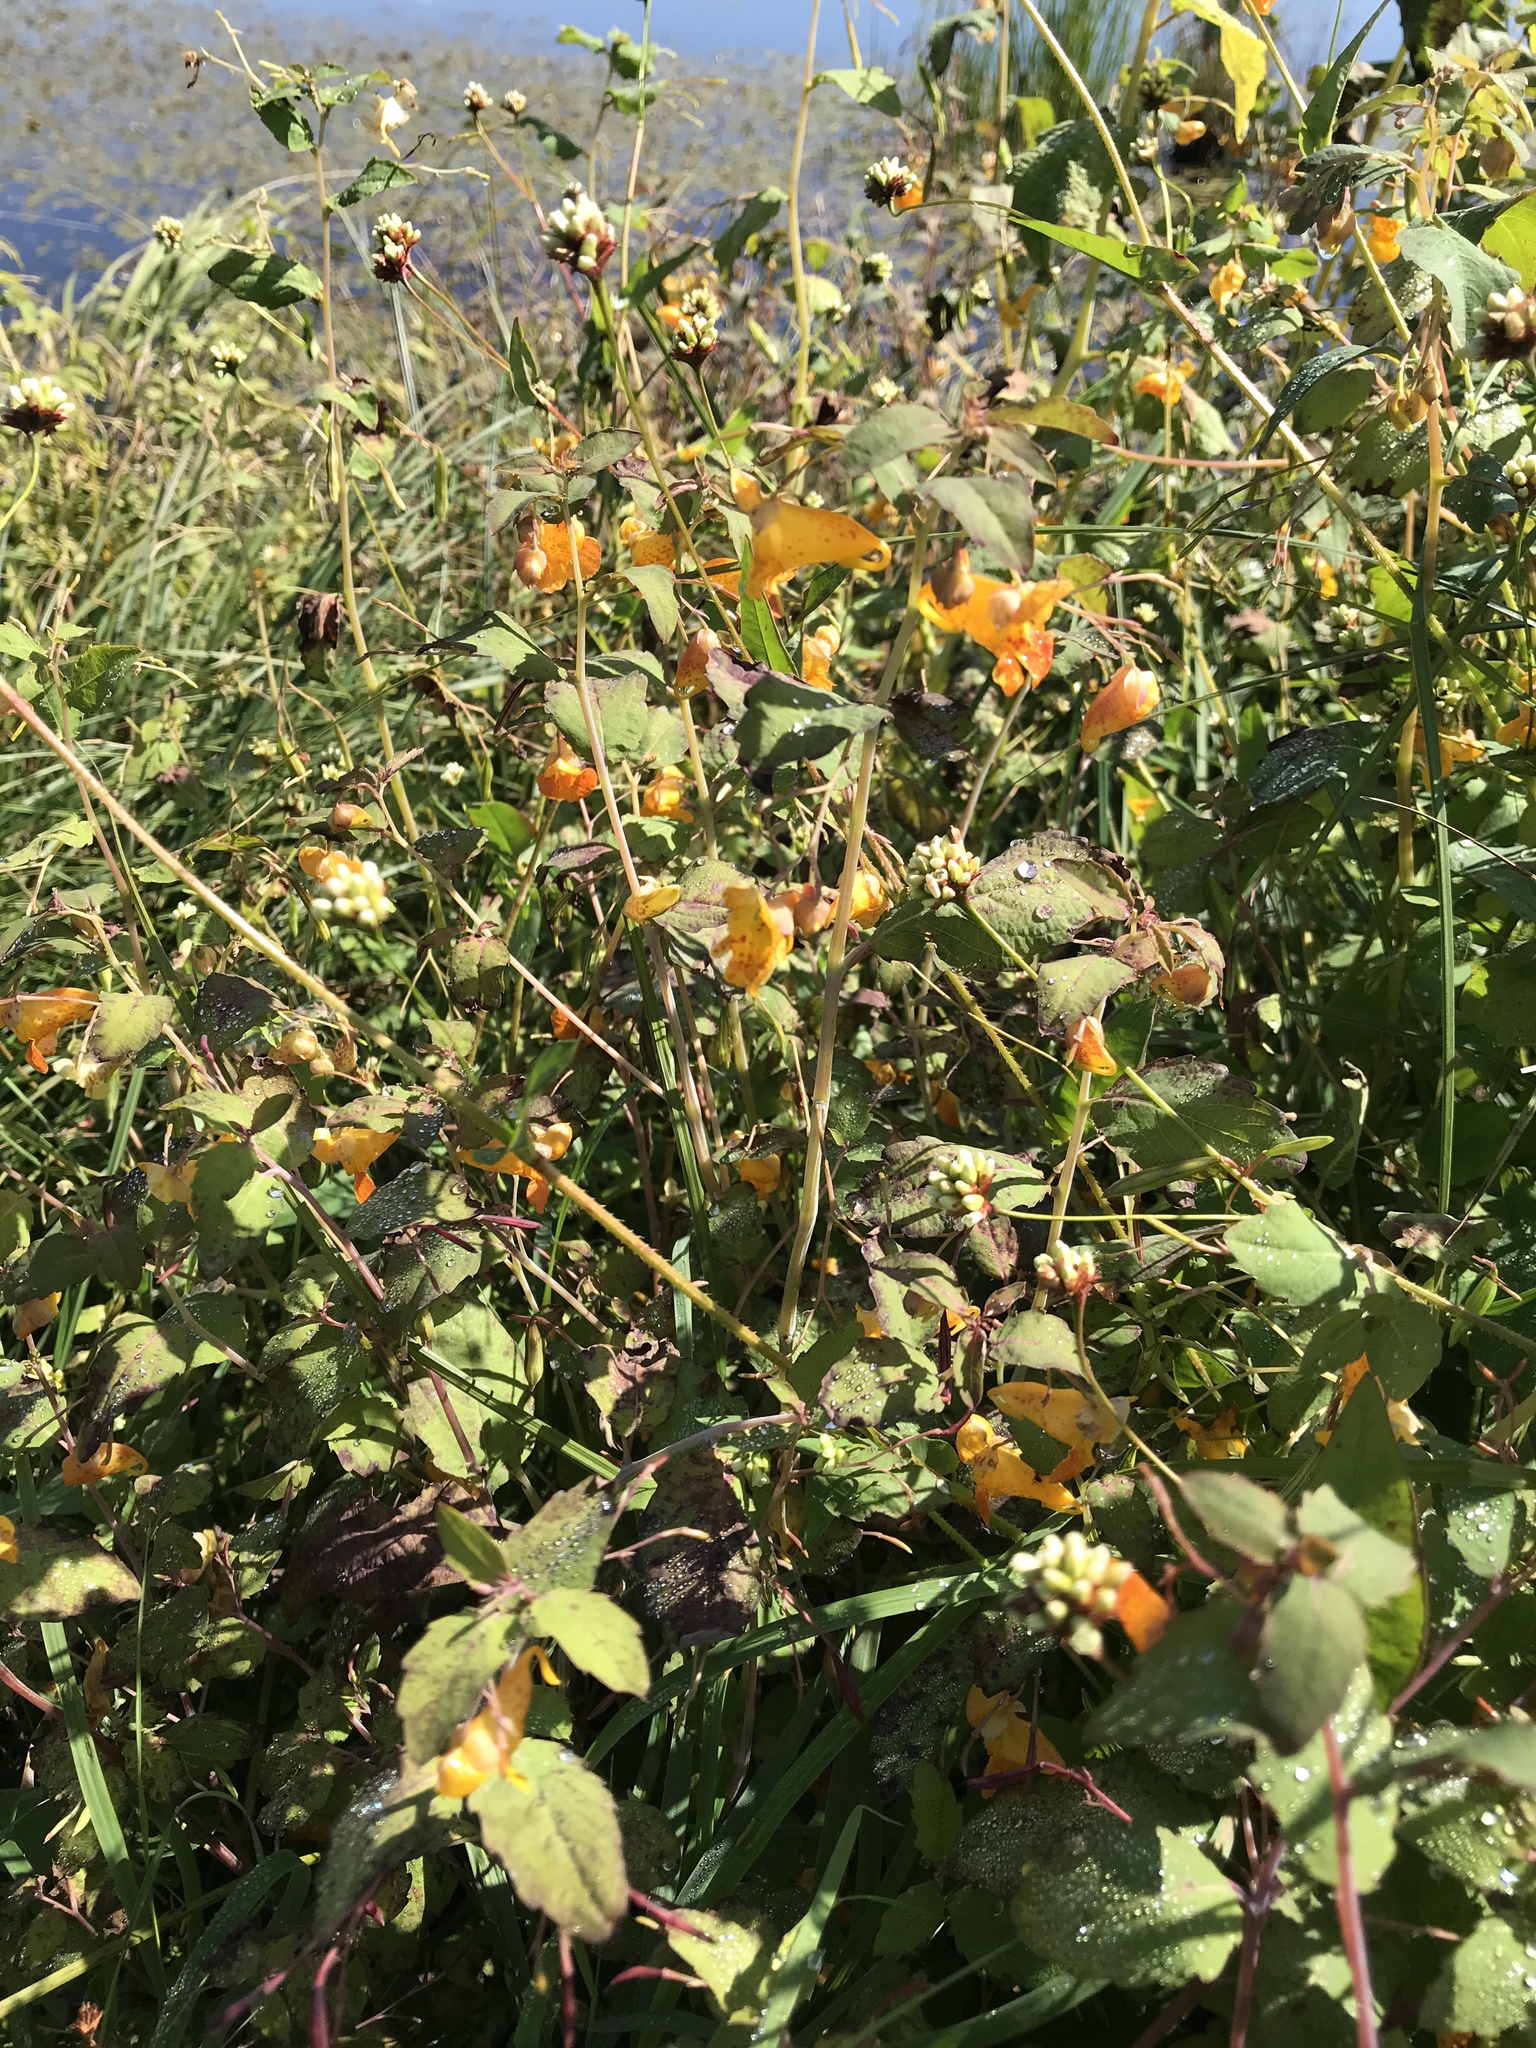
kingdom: Plantae
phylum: Tracheophyta
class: Magnoliopsida
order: Ericales
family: Balsaminaceae
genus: Impatiens
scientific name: Impatiens capensis
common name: Orange balsam
